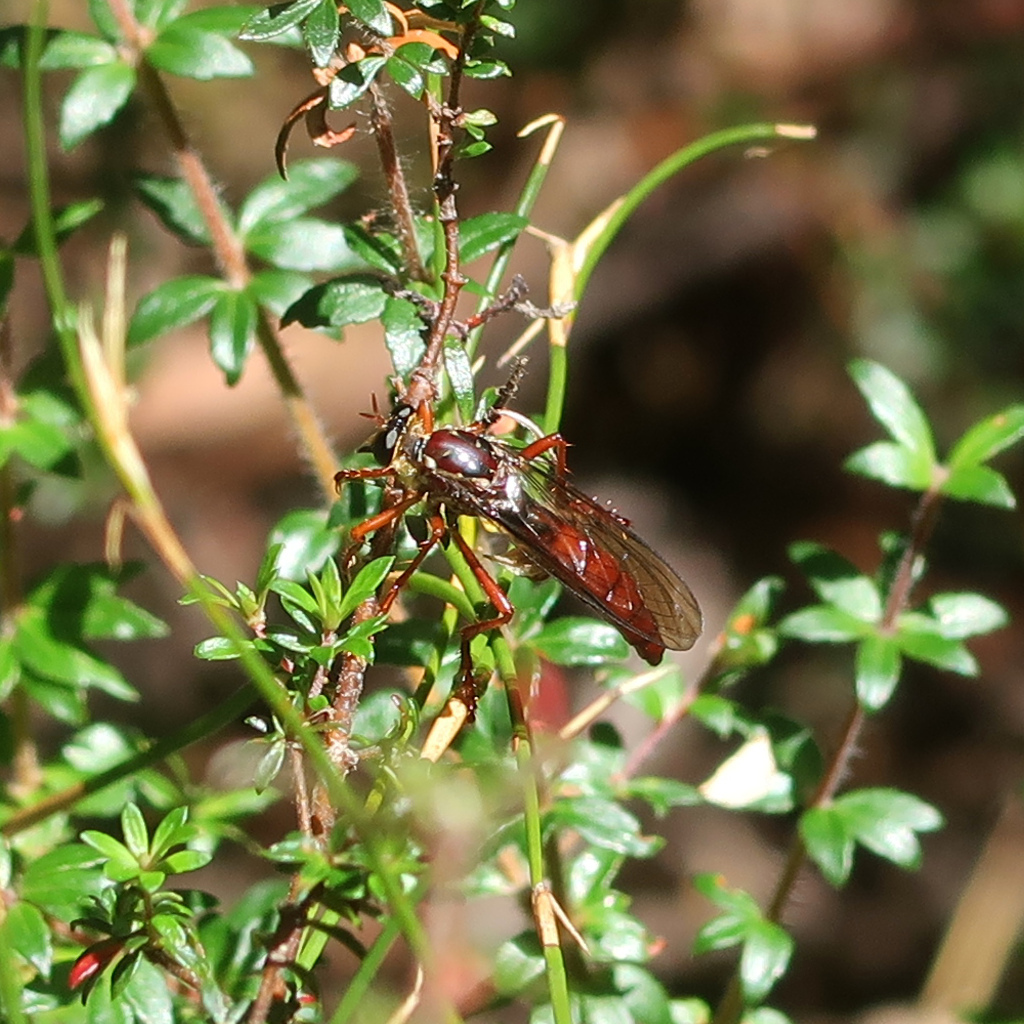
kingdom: Animalia
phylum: Arthropoda
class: Insecta
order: Diptera
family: Asilidae
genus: Humorolethalis
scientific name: Humorolethalis sergius
